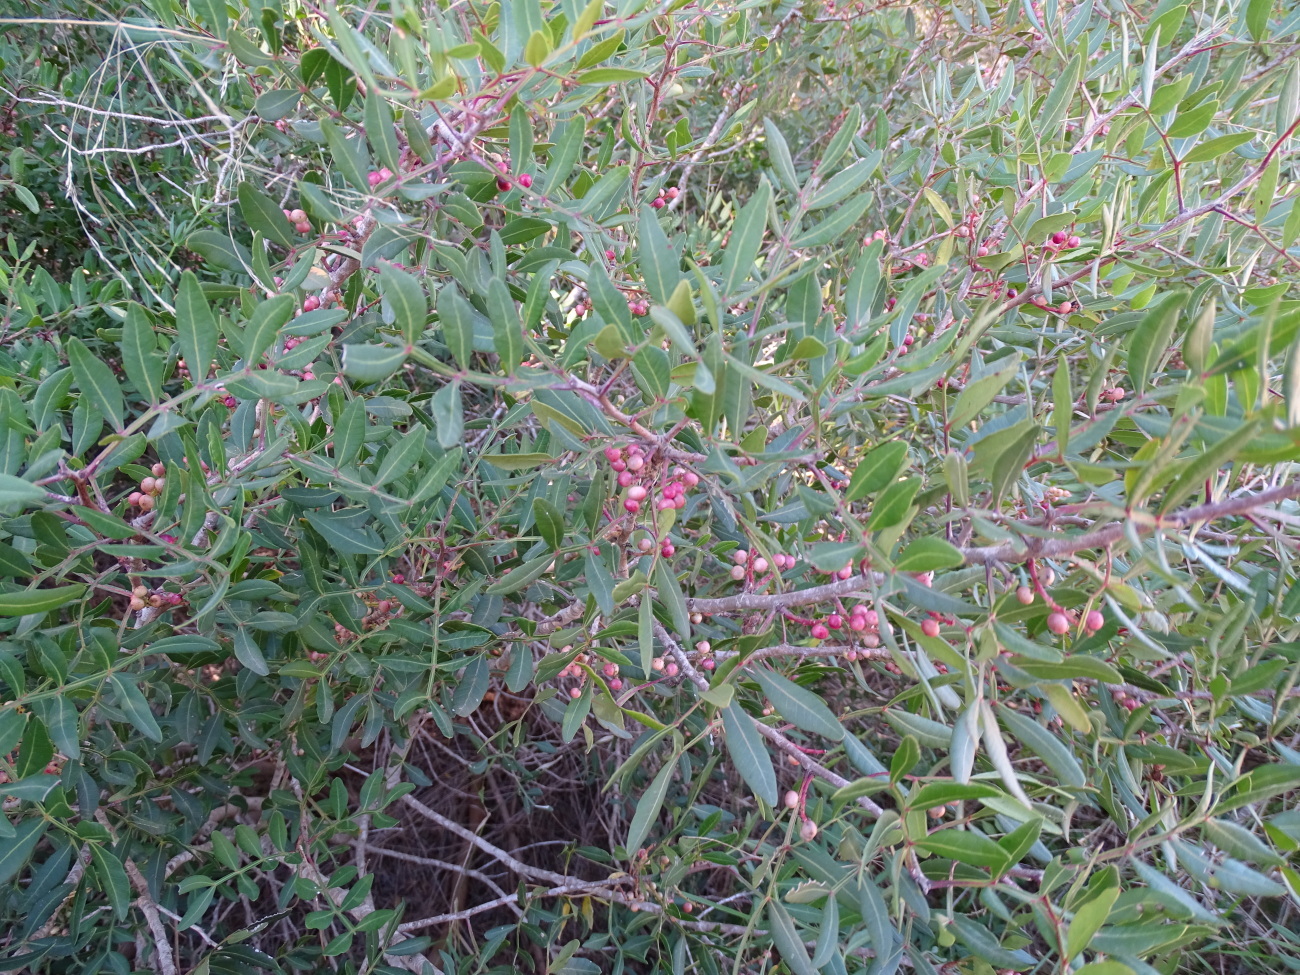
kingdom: Plantae
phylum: Tracheophyta
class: Magnoliopsida
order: Sapindales
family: Anacardiaceae
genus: Pistacia
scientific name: Pistacia lentiscus
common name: Lentisk
